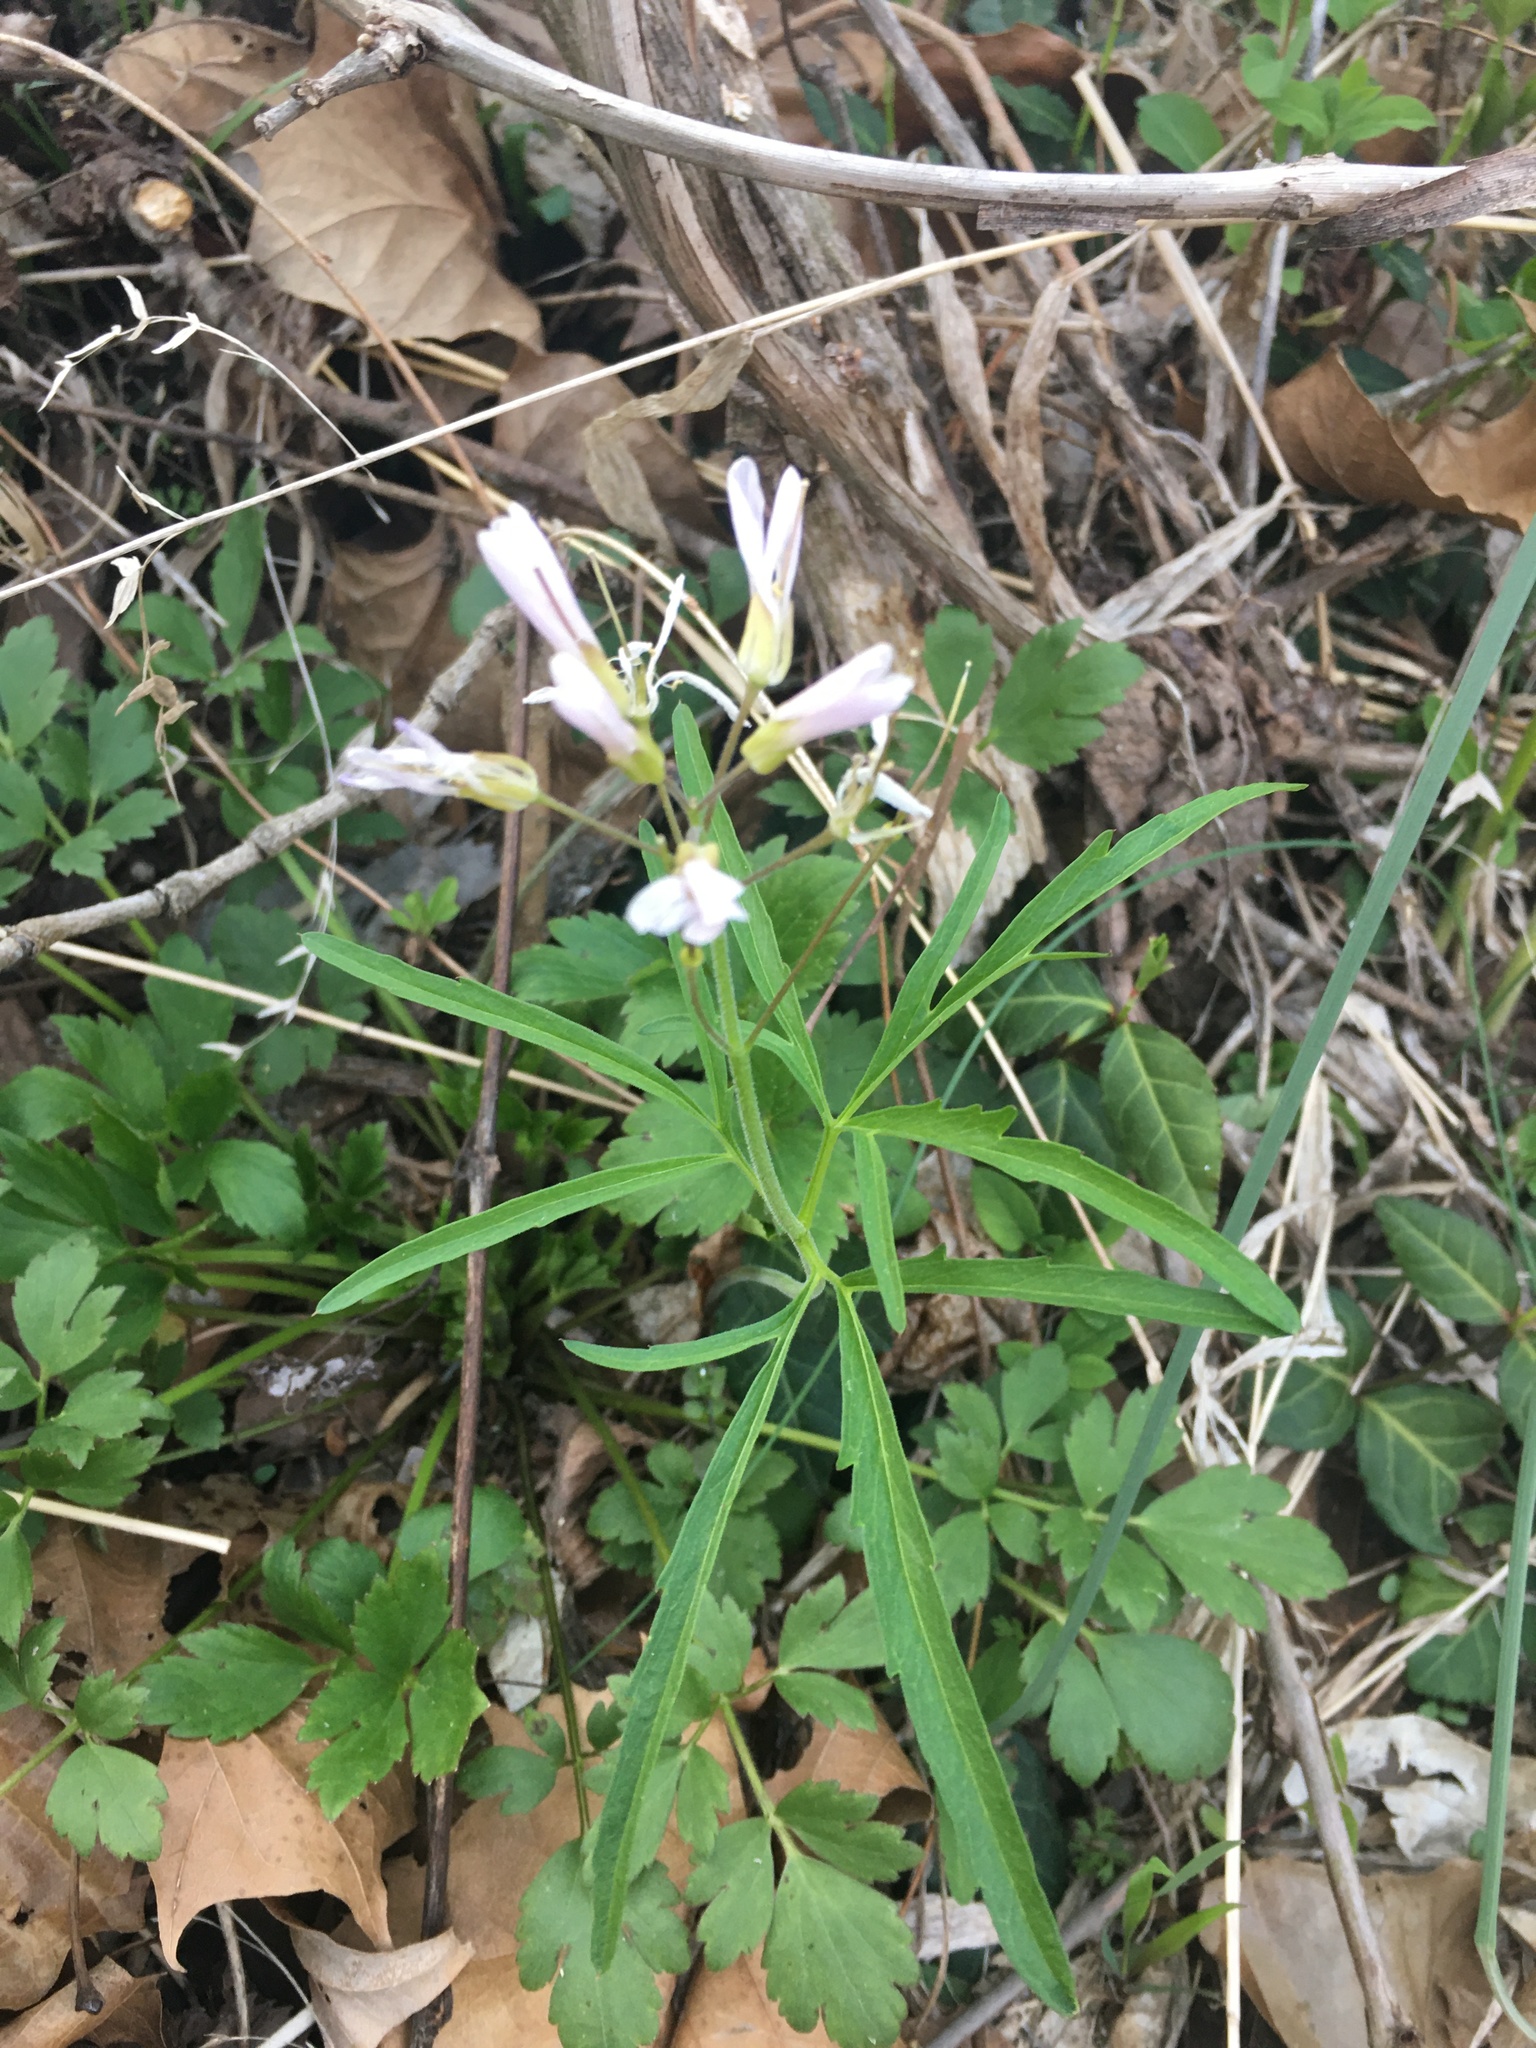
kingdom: Plantae
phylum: Tracheophyta
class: Magnoliopsida
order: Brassicales
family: Brassicaceae
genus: Cardamine
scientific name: Cardamine concatenata
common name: Cut-leaf toothcup
